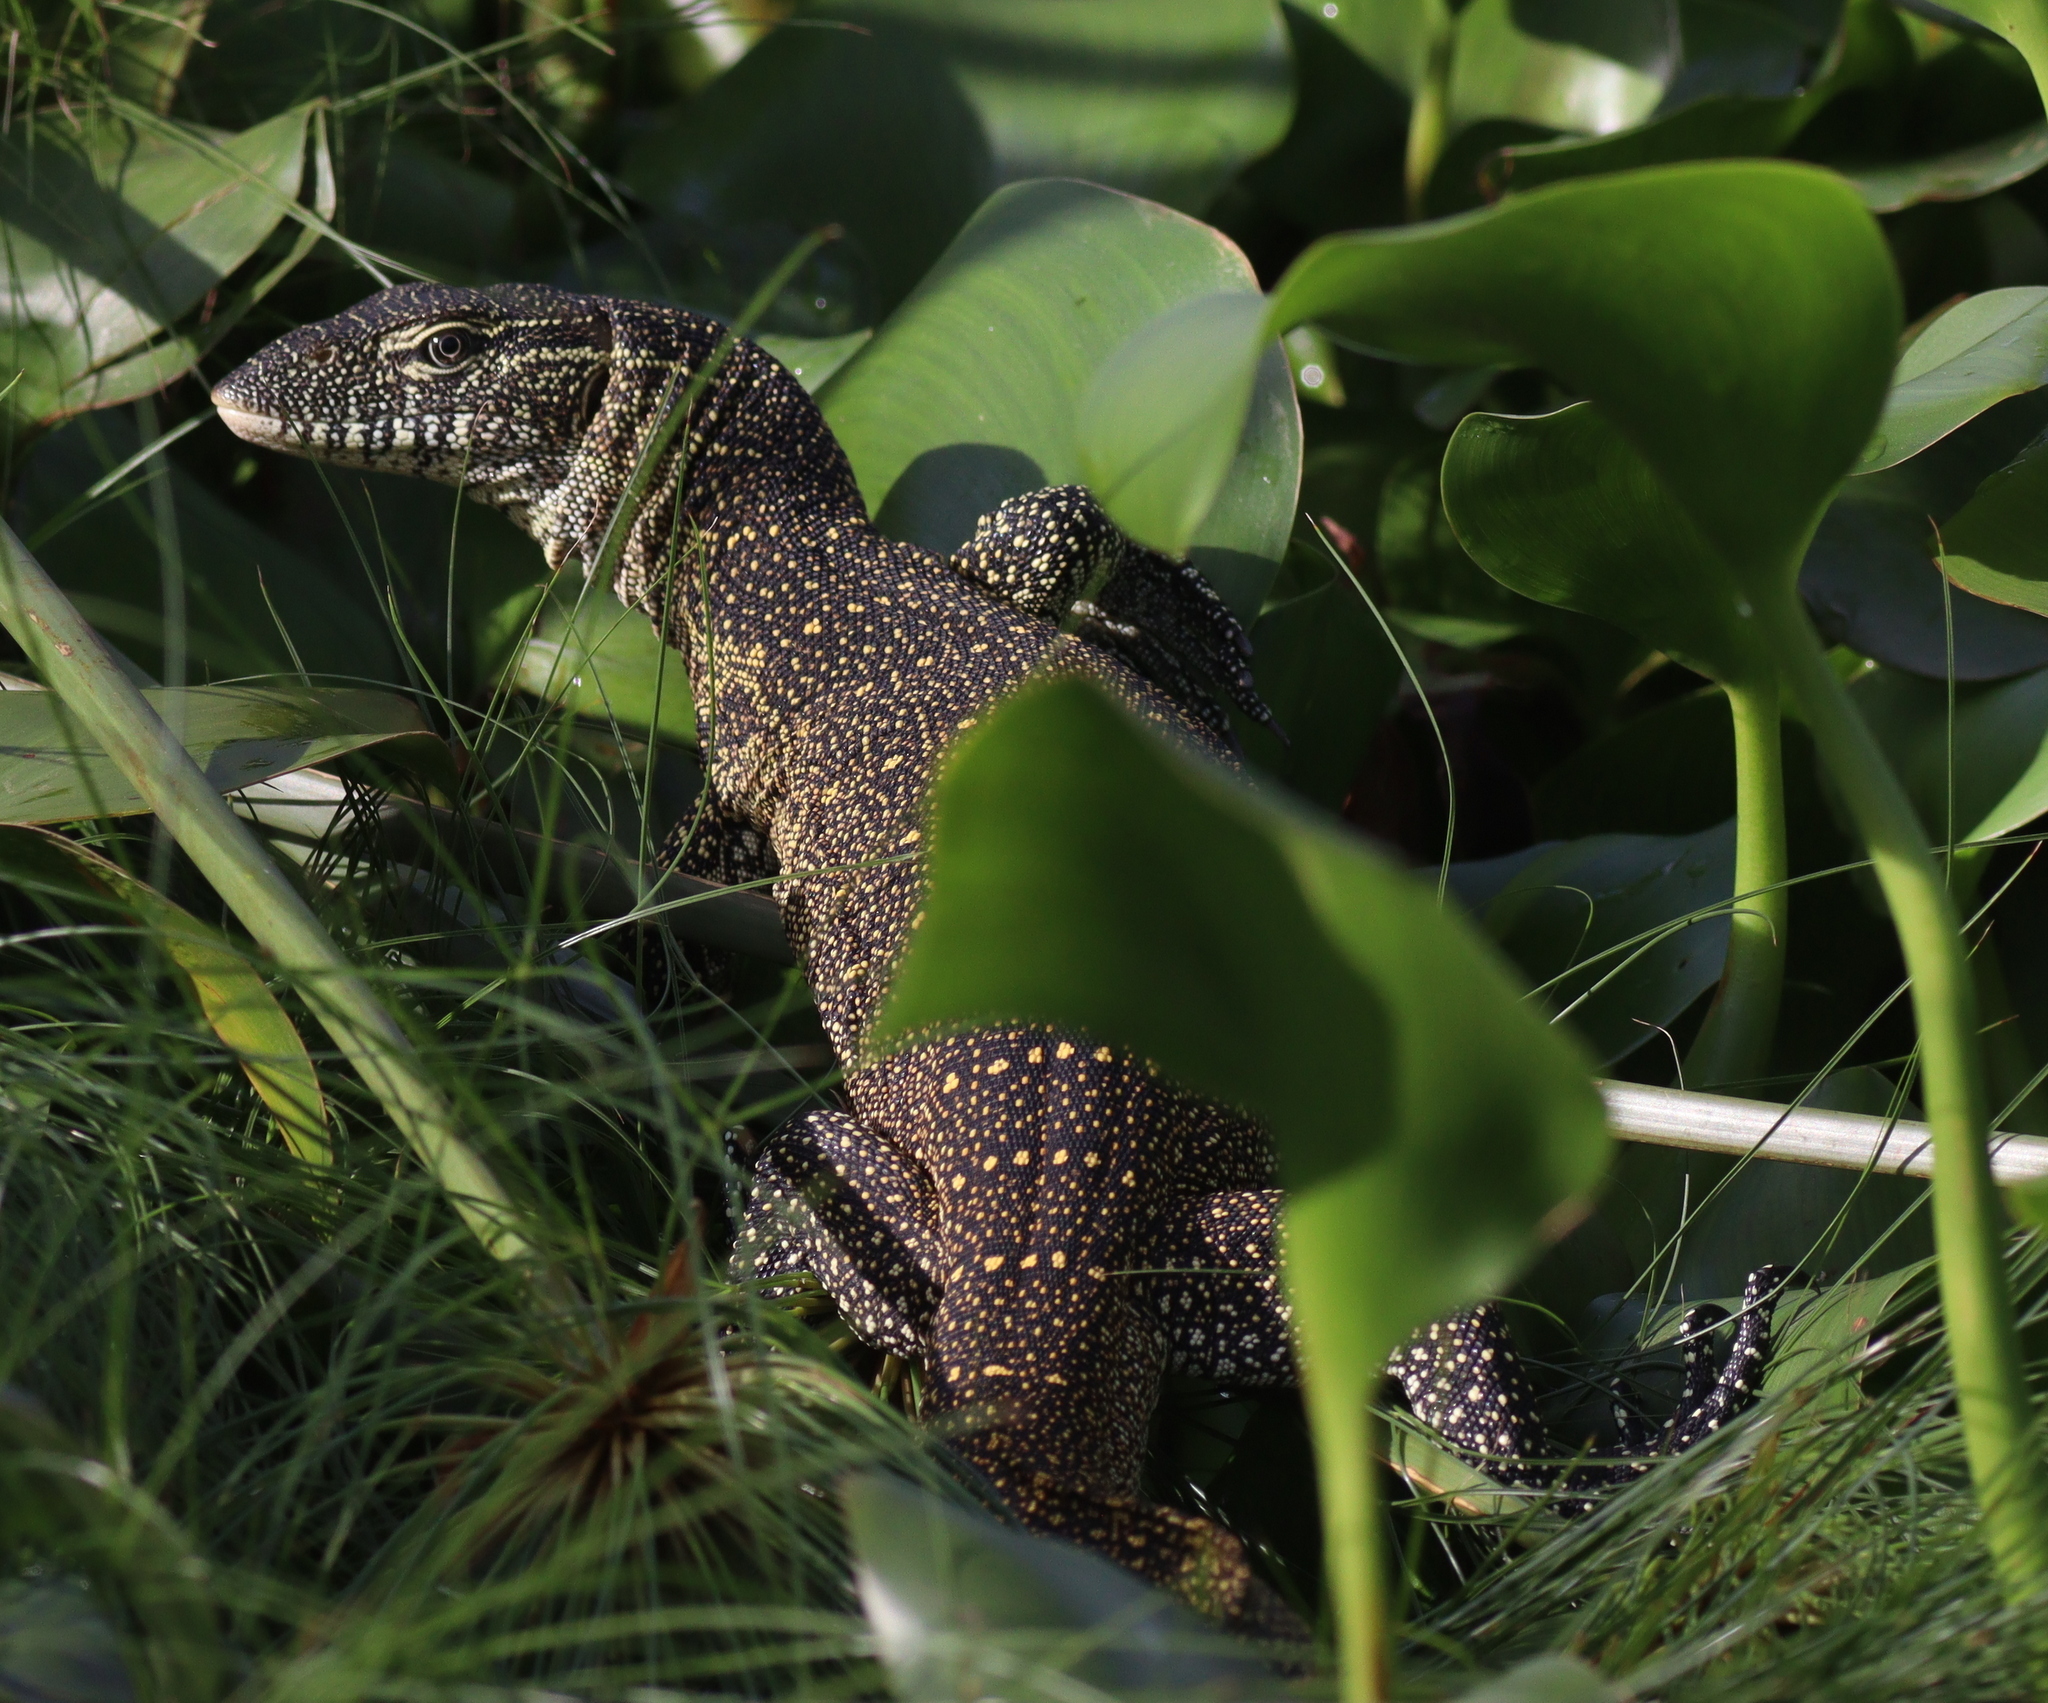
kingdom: Animalia
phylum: Chordata
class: Squamata
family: Varanidae
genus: Varanus
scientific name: Varanus niloticus
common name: Nile monitor
